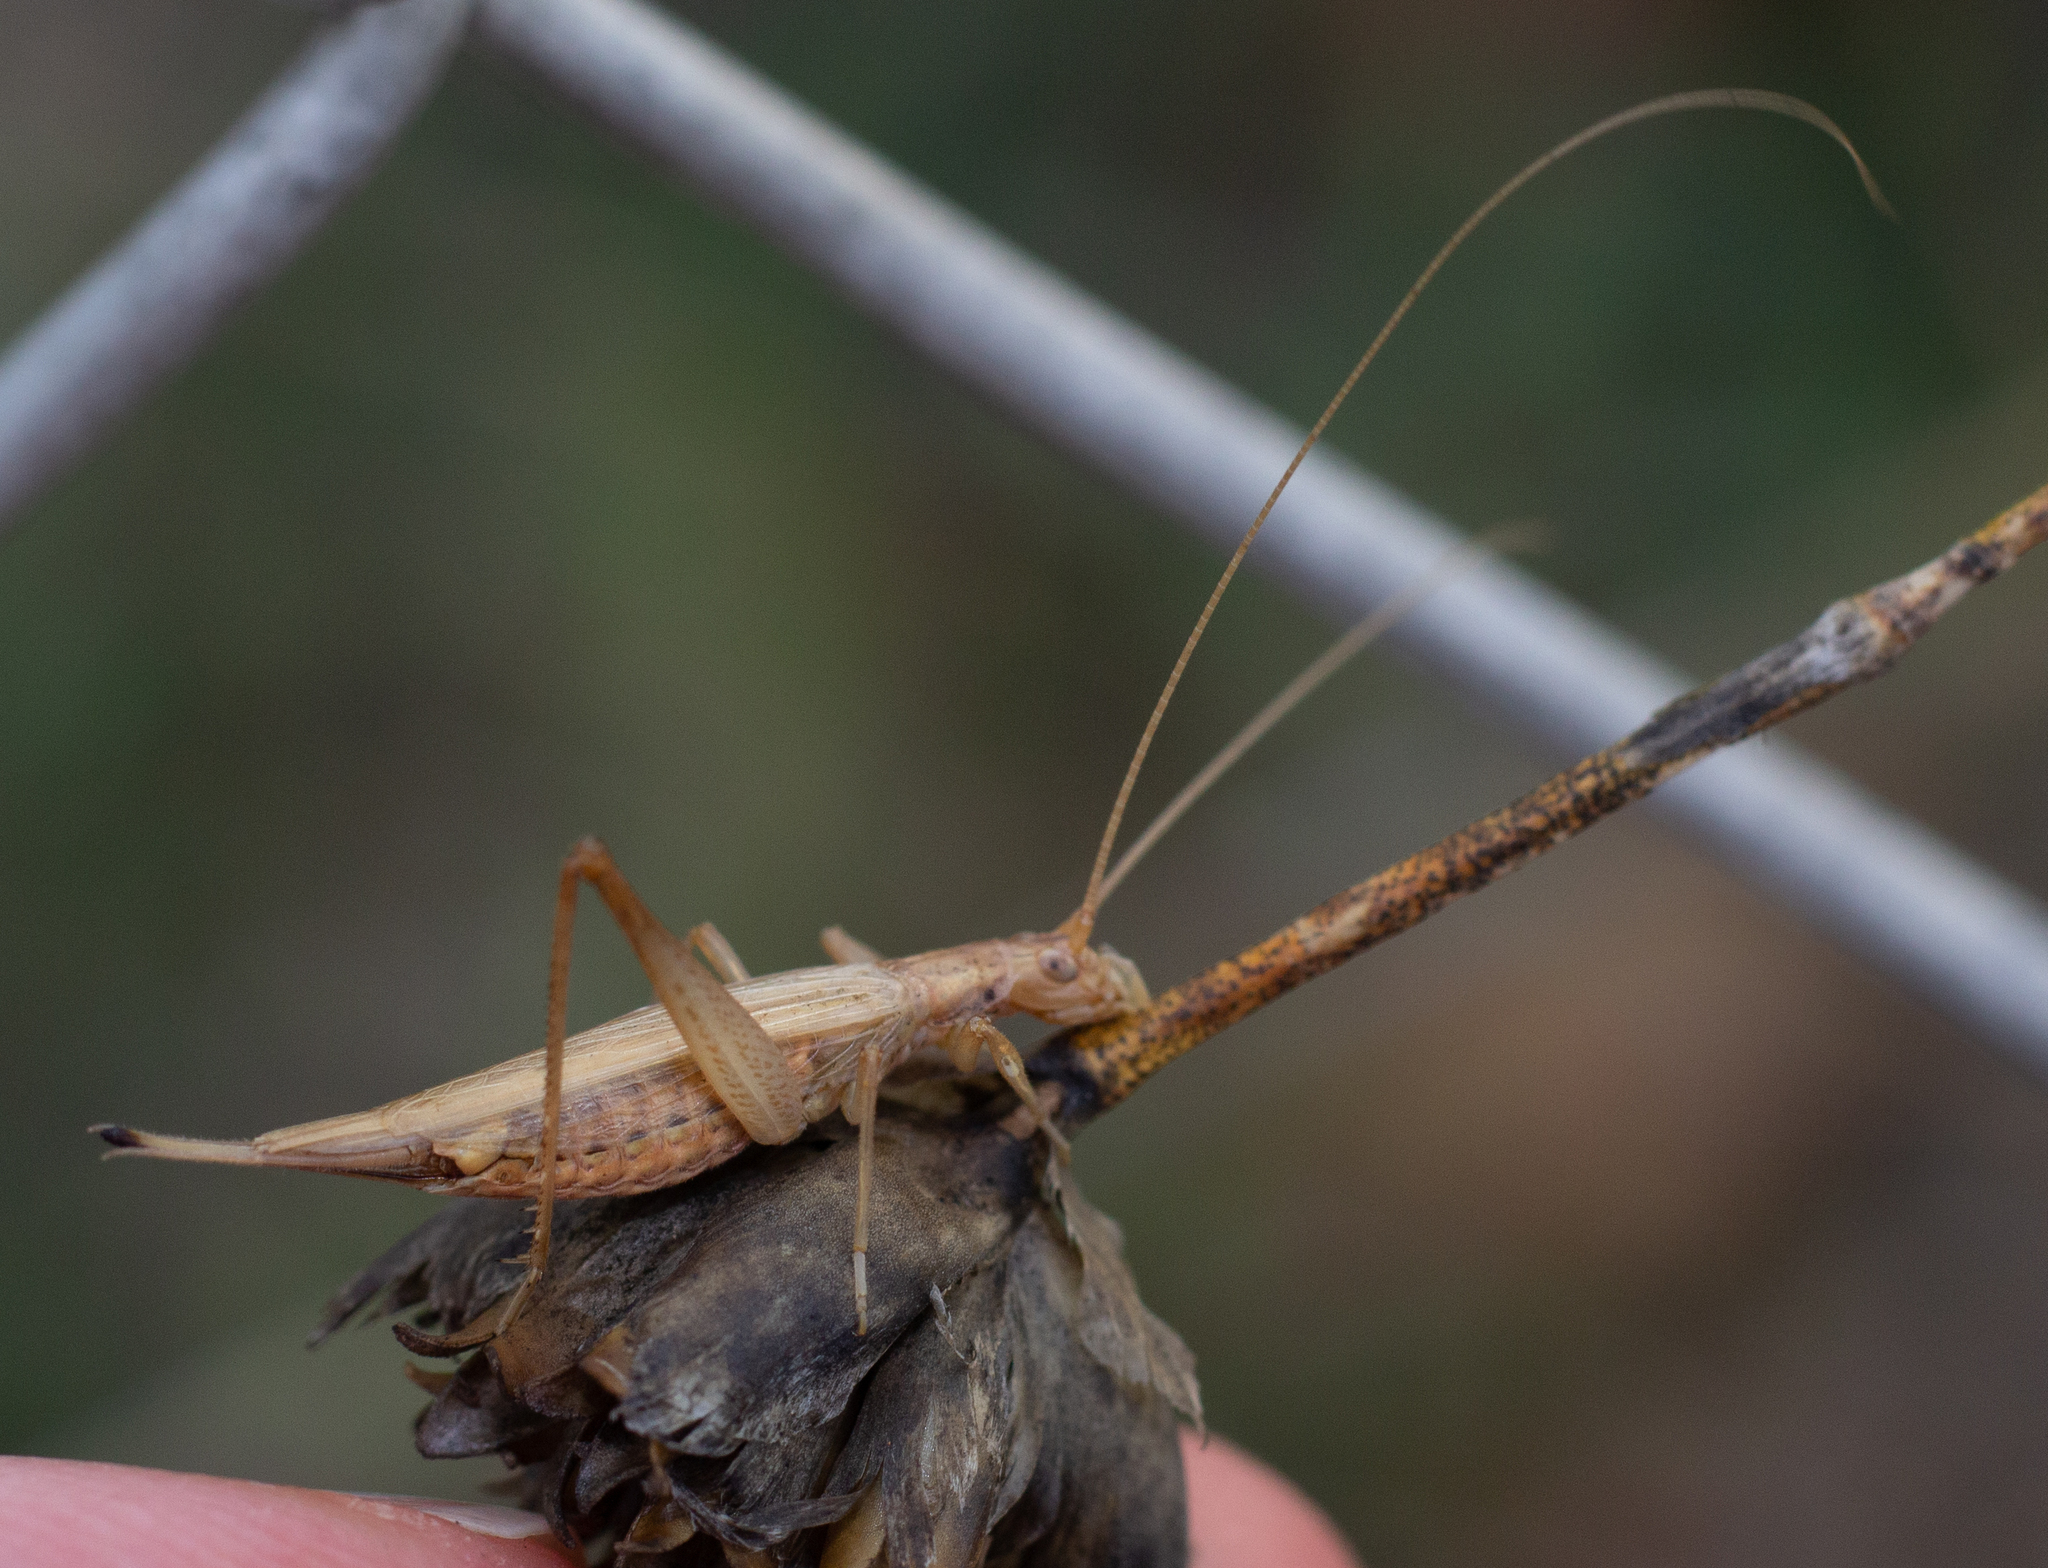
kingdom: Animalia
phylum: Arthropoda
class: Insecta
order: Orthoptera
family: Gryllidae
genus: Oecanthus
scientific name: Oecanthus pellucens
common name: Tree-cricket
